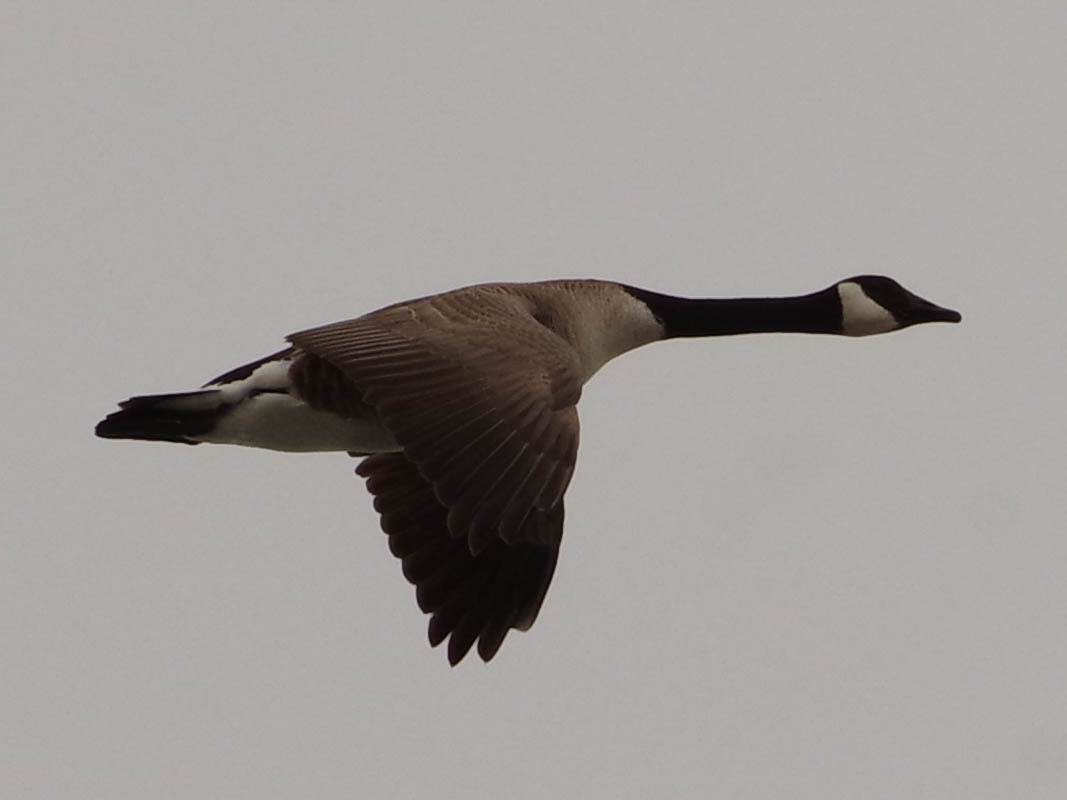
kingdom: Animalia
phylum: Chordata
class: Aves
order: Anseriformes
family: Anatidae
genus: Branta
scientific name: Branta canadensis
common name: Canada goose
